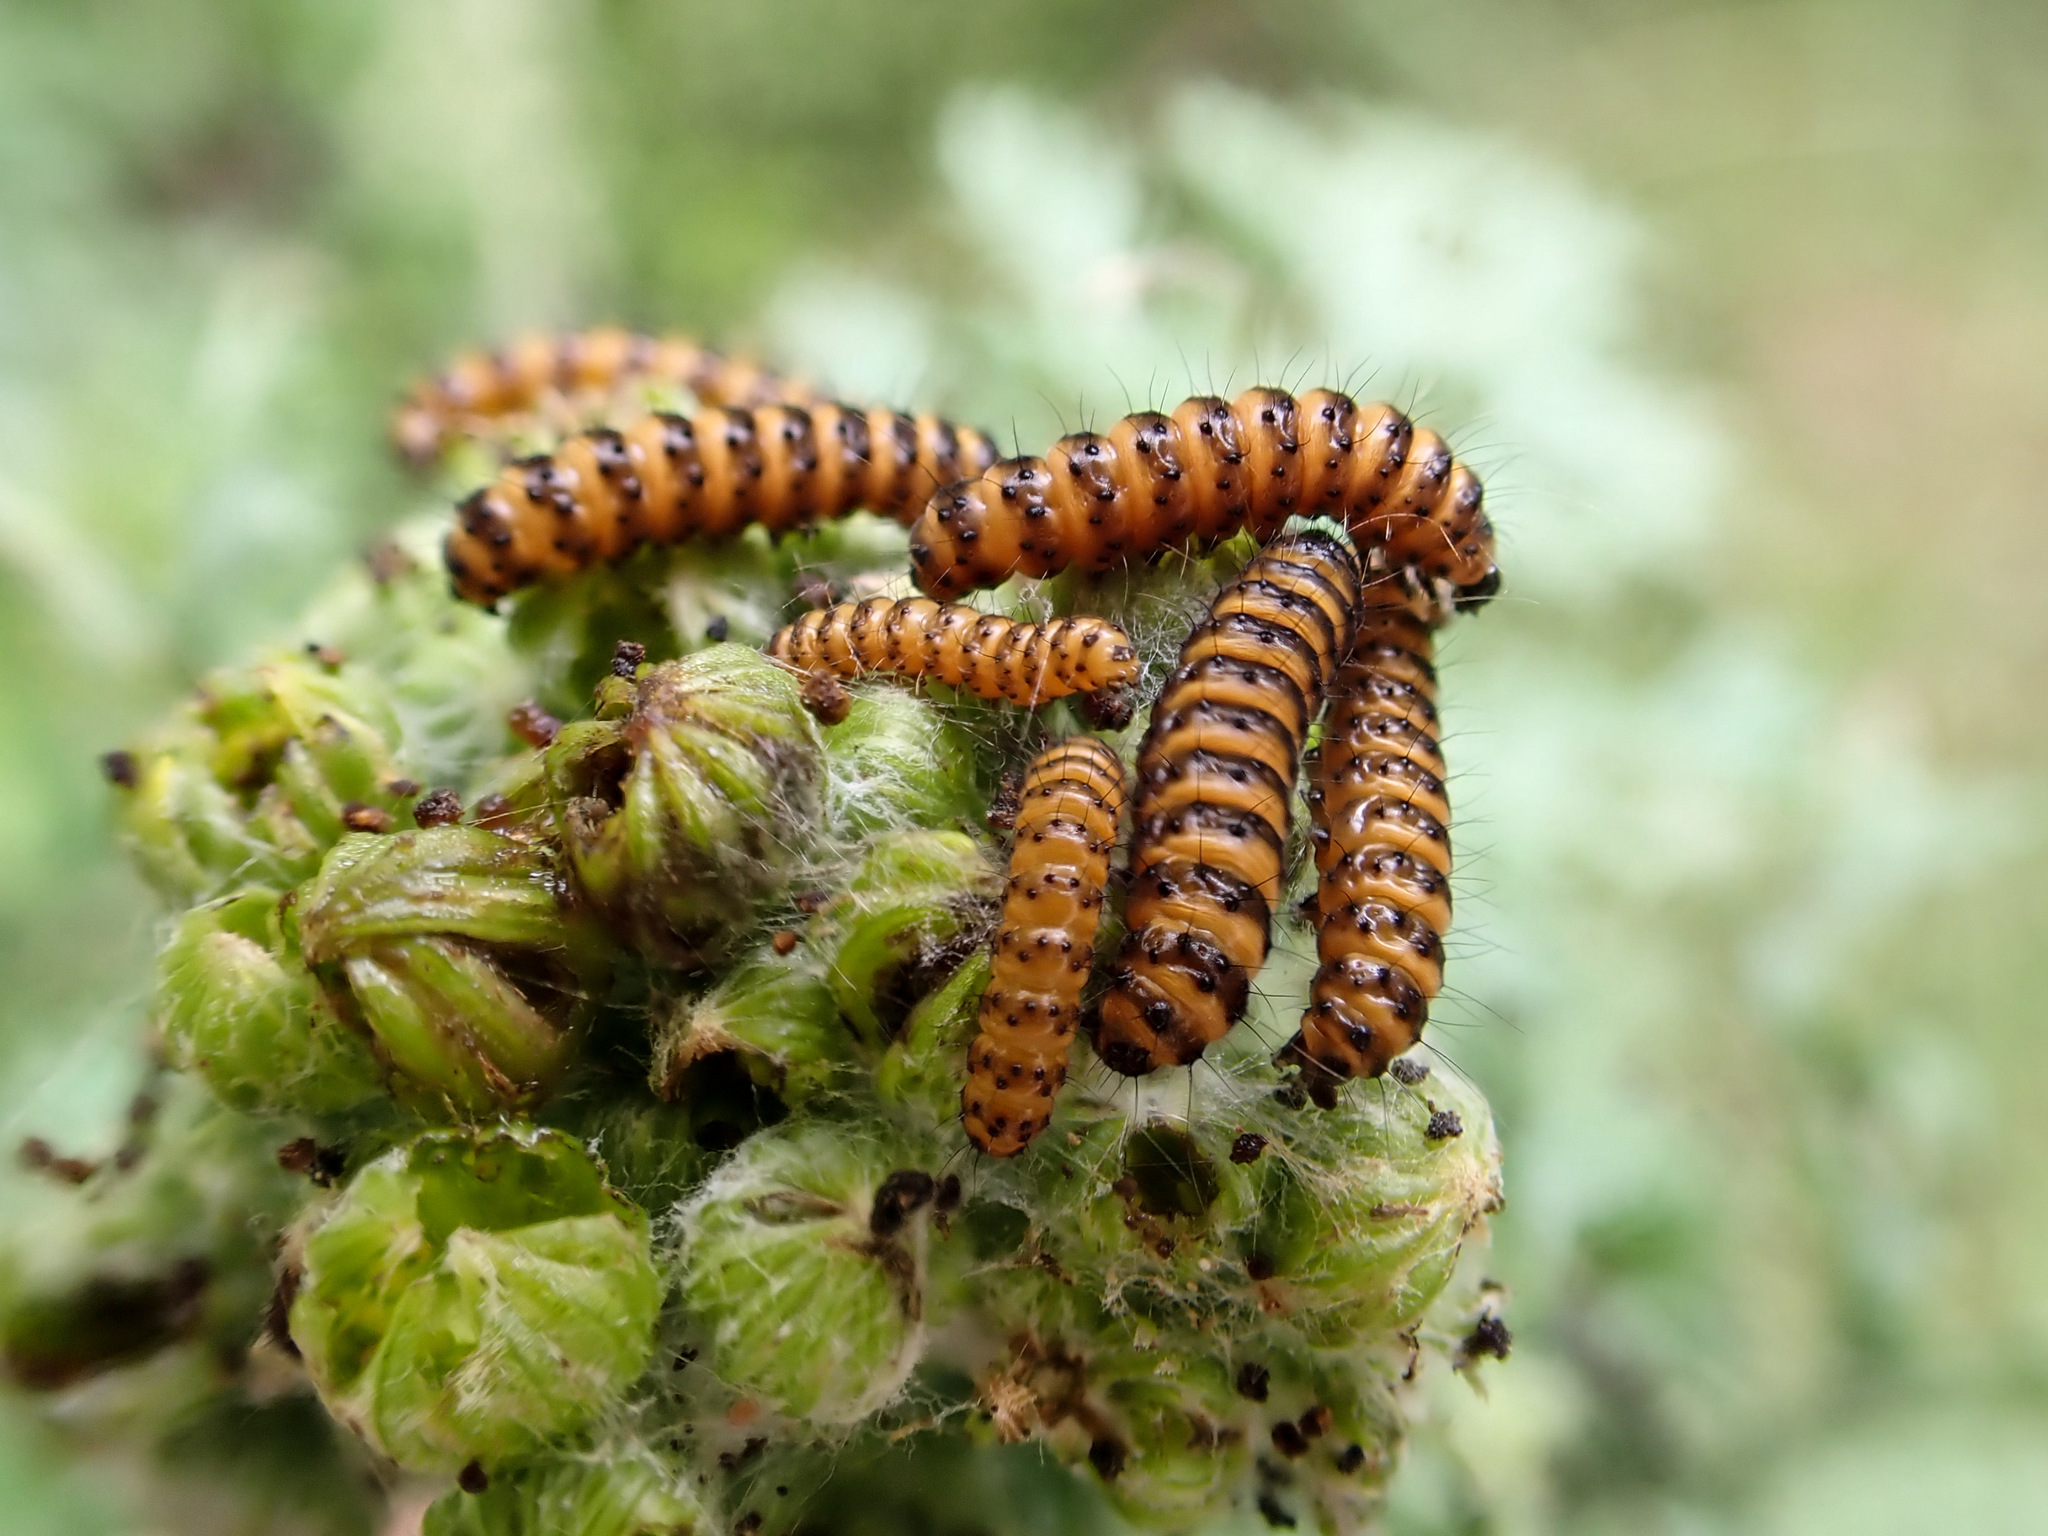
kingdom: Animalia
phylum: Arthropoda
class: Insecta
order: Lepidoptera
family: Erebidae
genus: Tyria
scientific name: Tyria jacobaeae
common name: Cinnabar
